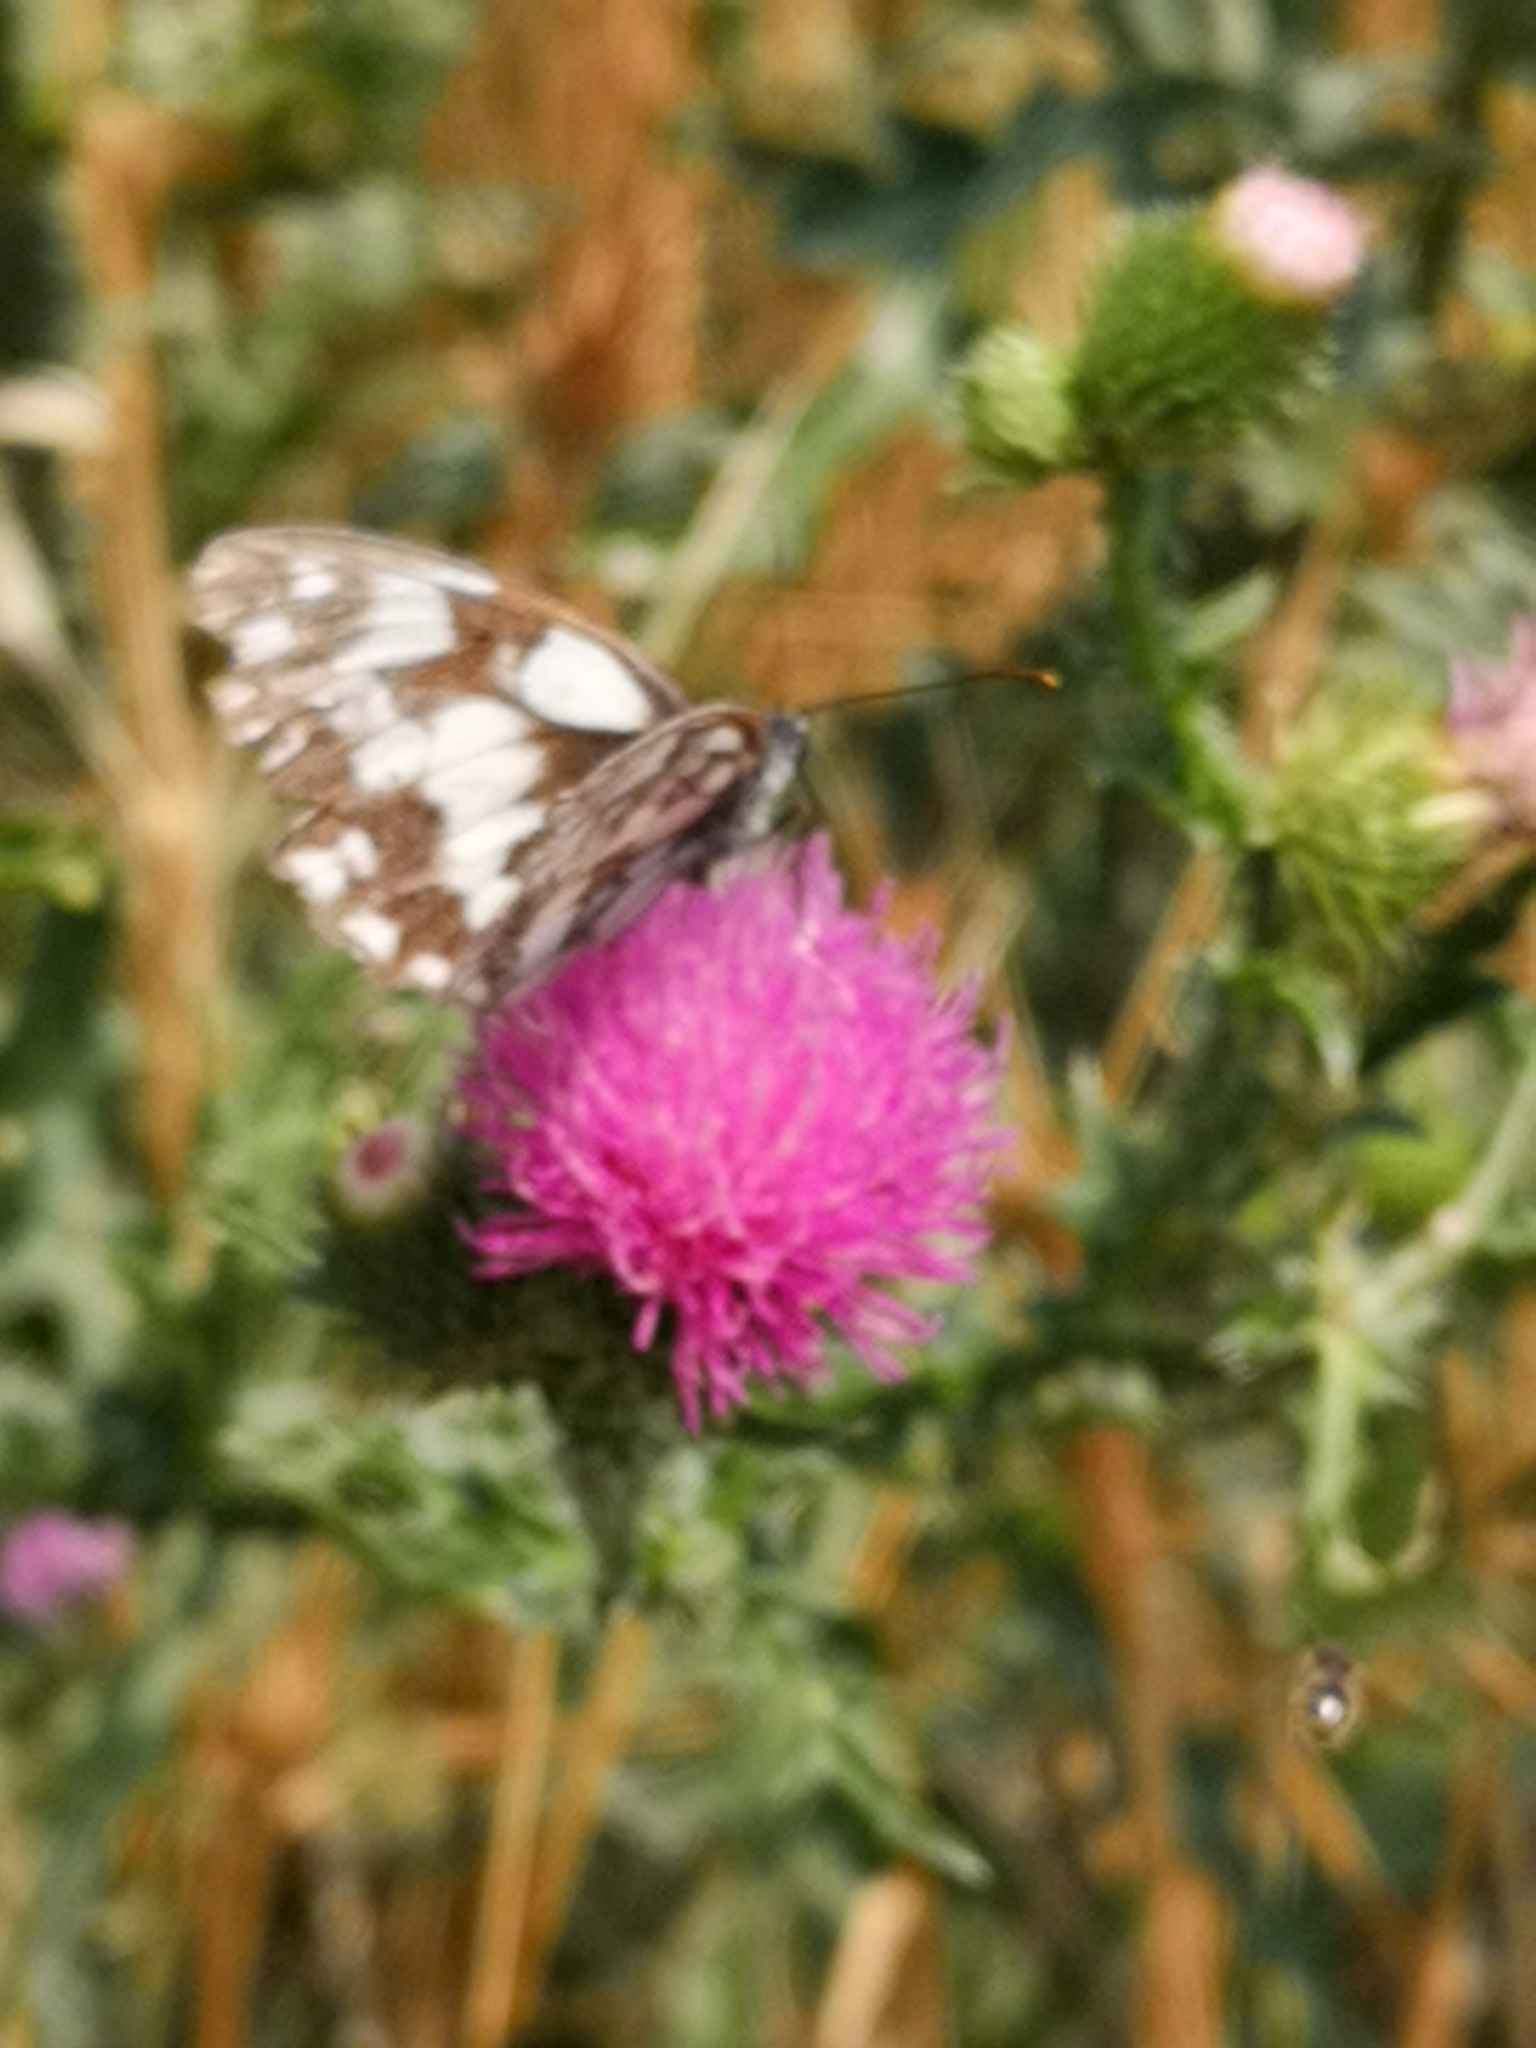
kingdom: Animalia
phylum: Arthropoda
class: Insecta
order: Lepidoptera
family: Nymphalidae
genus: Melanargia
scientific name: Melanargia galathea
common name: Marbled white
